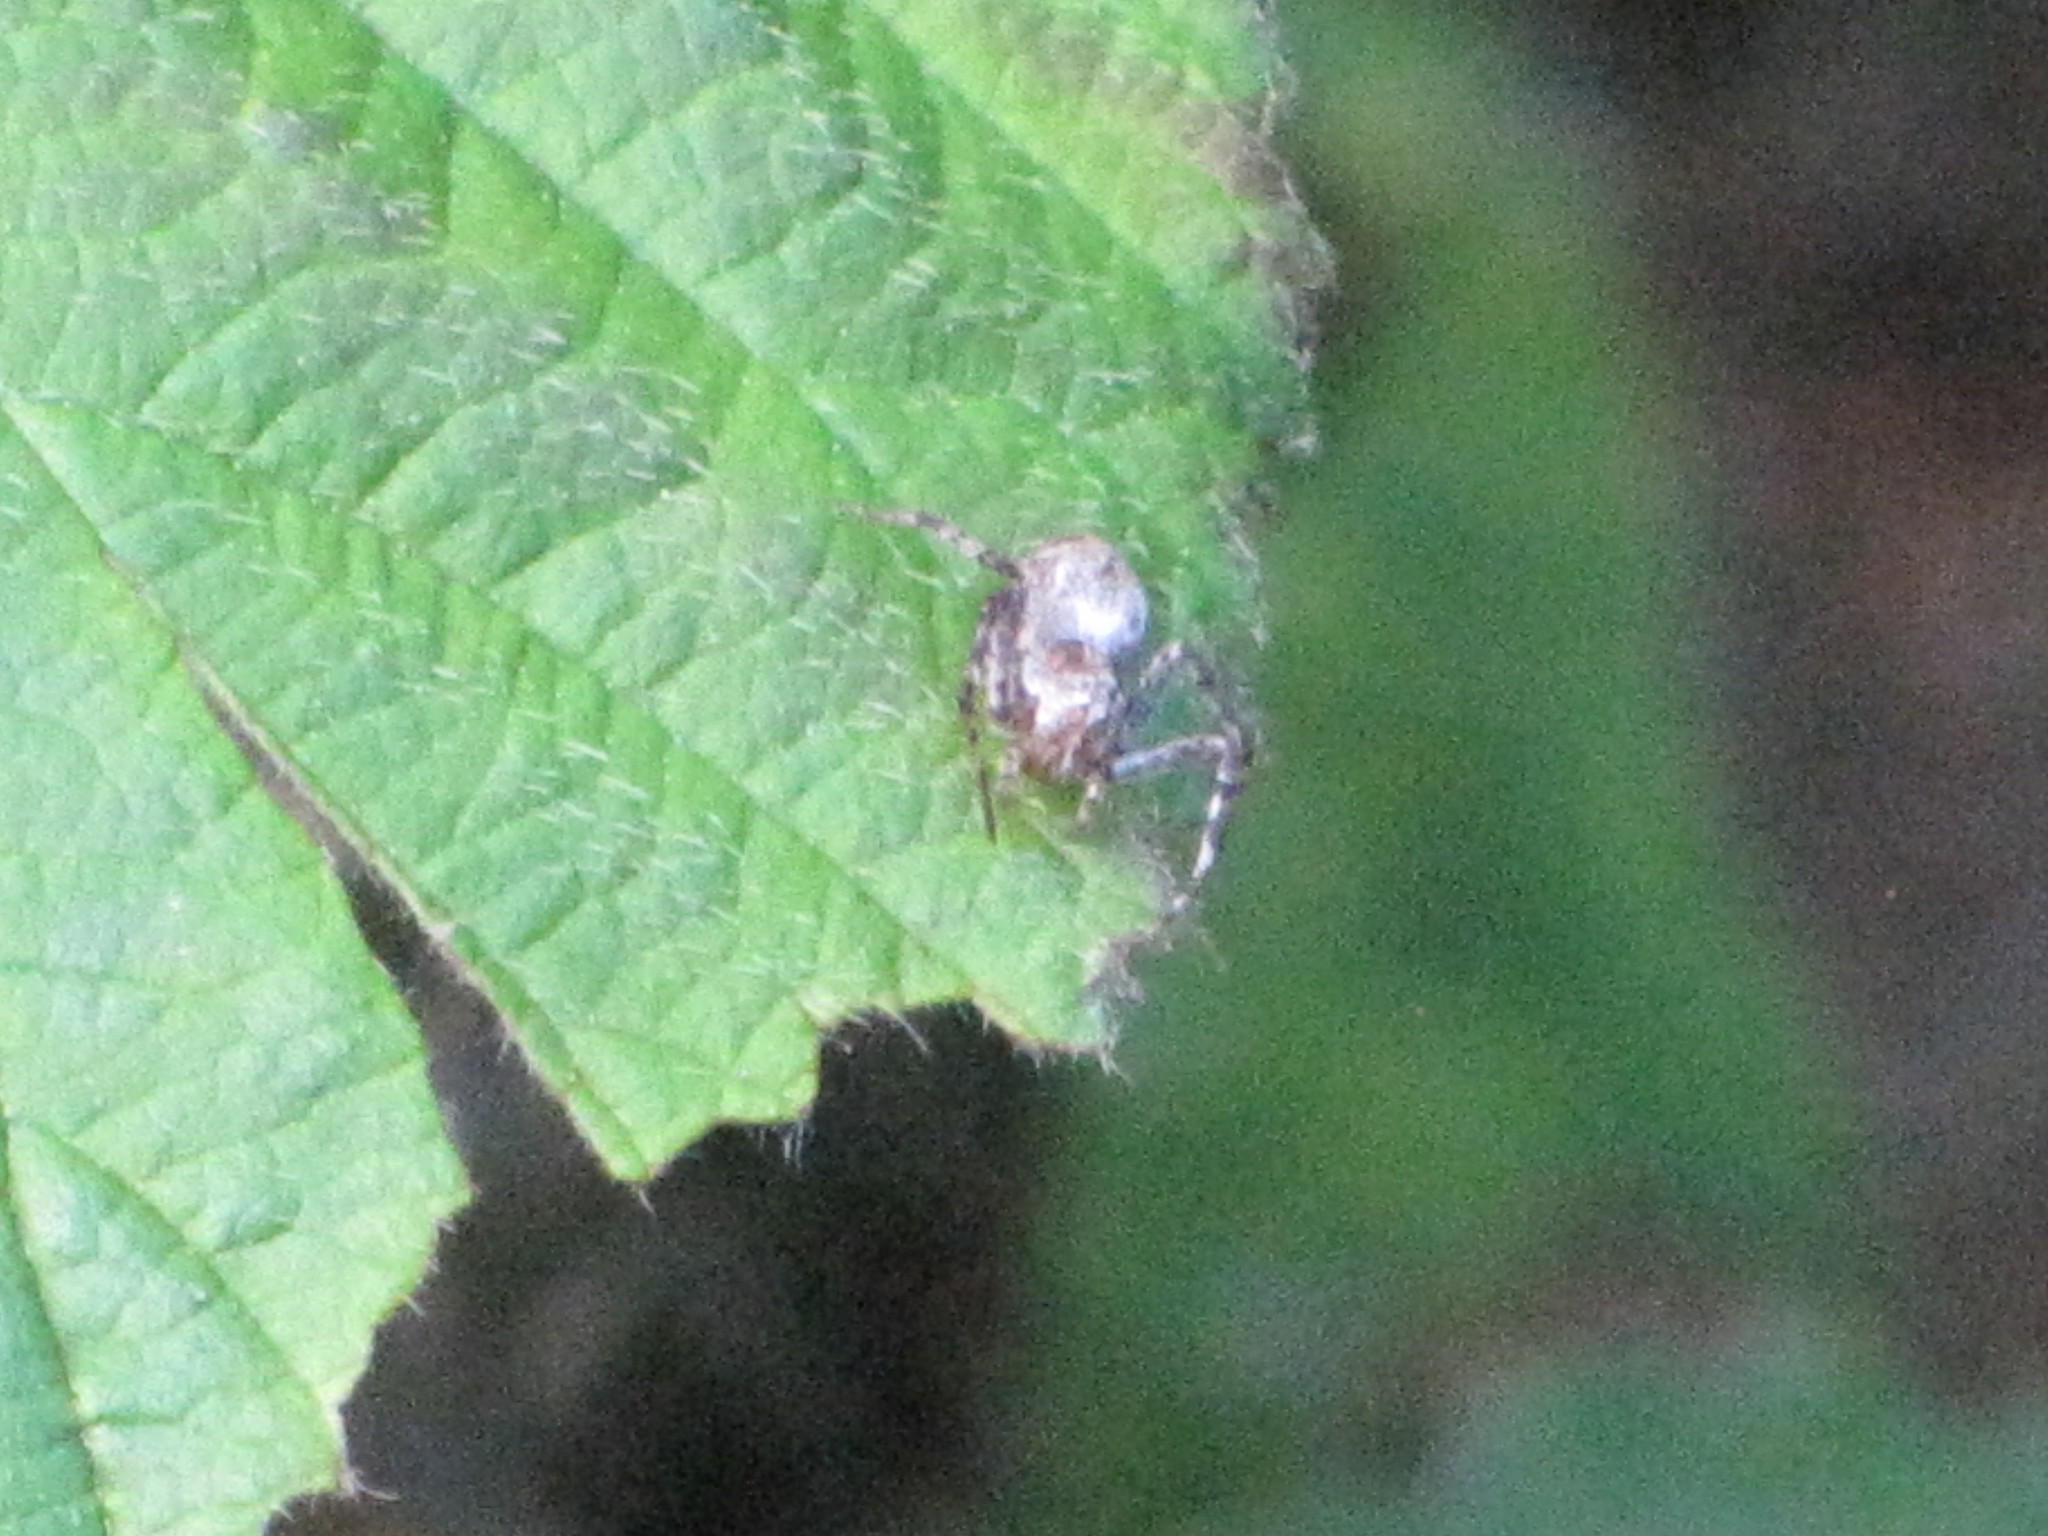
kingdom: Animalia
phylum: Arthropoda
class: Arachnida
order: Araneae
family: Oxyopidae
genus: Oxyopes
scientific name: Oxyopes scalaris
